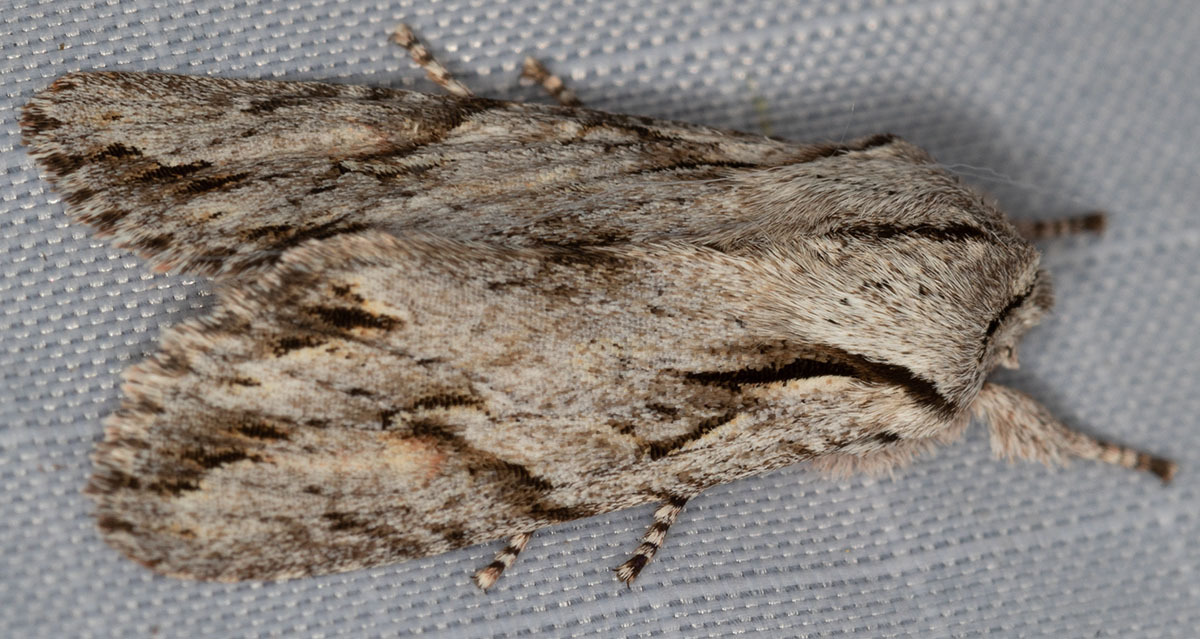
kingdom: Animalia
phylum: Arthropoda
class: Insecta
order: Lepidoptera
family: Noctuidae
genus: Egira
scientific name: Egira crucialis
